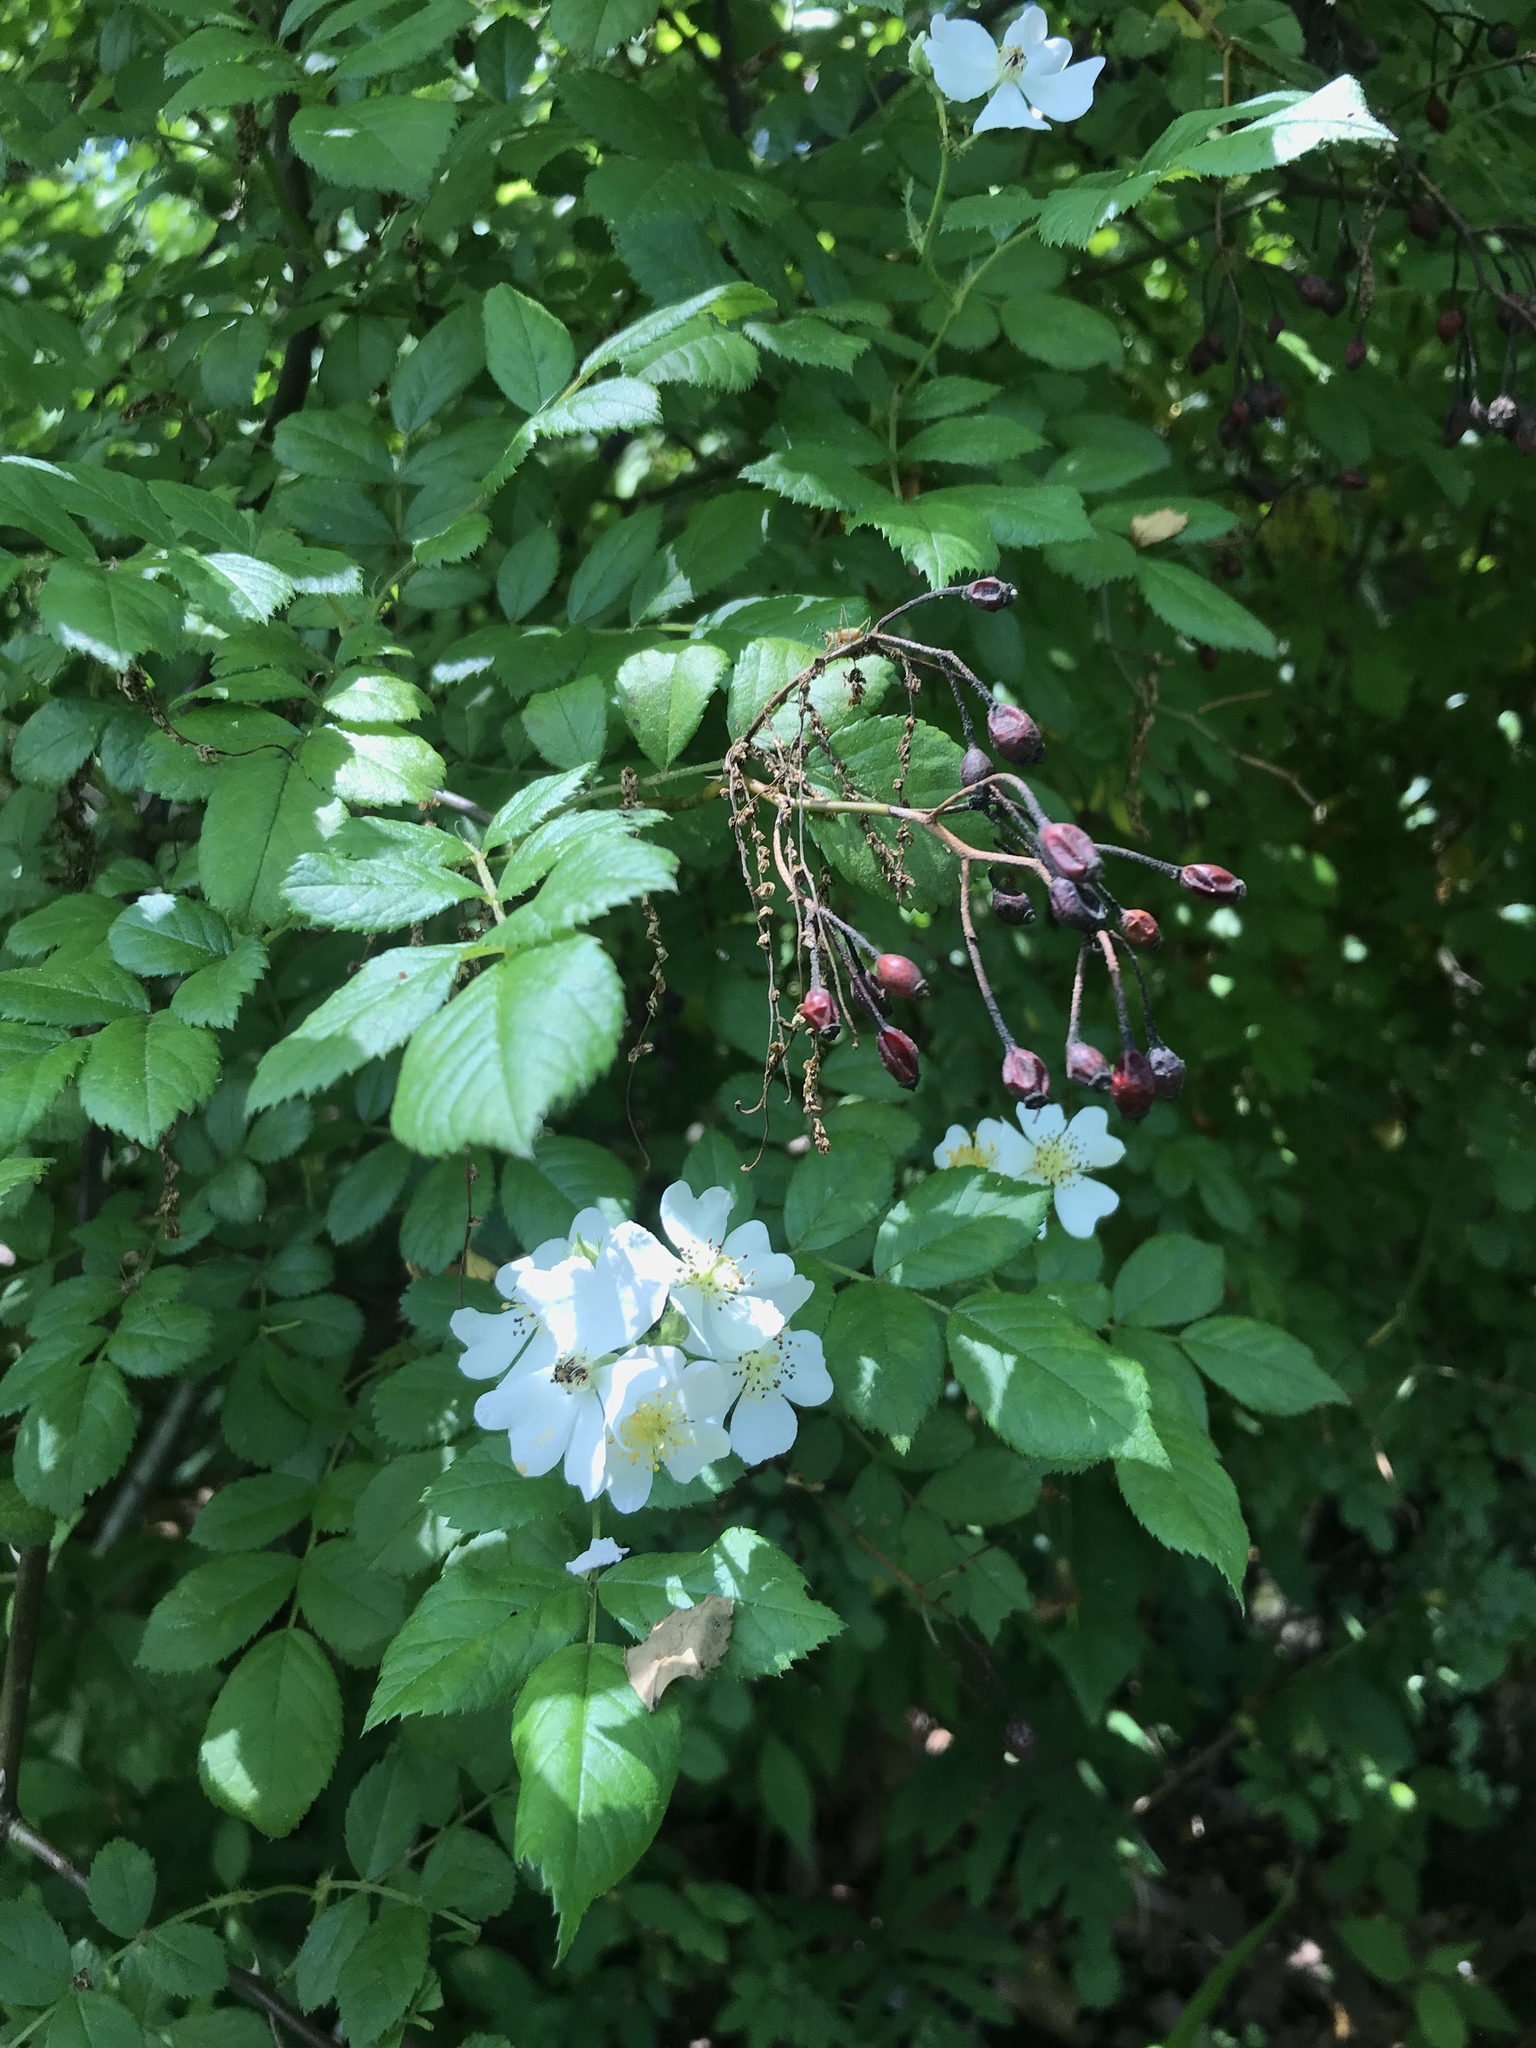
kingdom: Plantae
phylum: Tracheophyta
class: Magnoliopsida
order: Rosales
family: Rosaceae
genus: Rosa
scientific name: Rosa multiflora
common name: Multiflora rose
